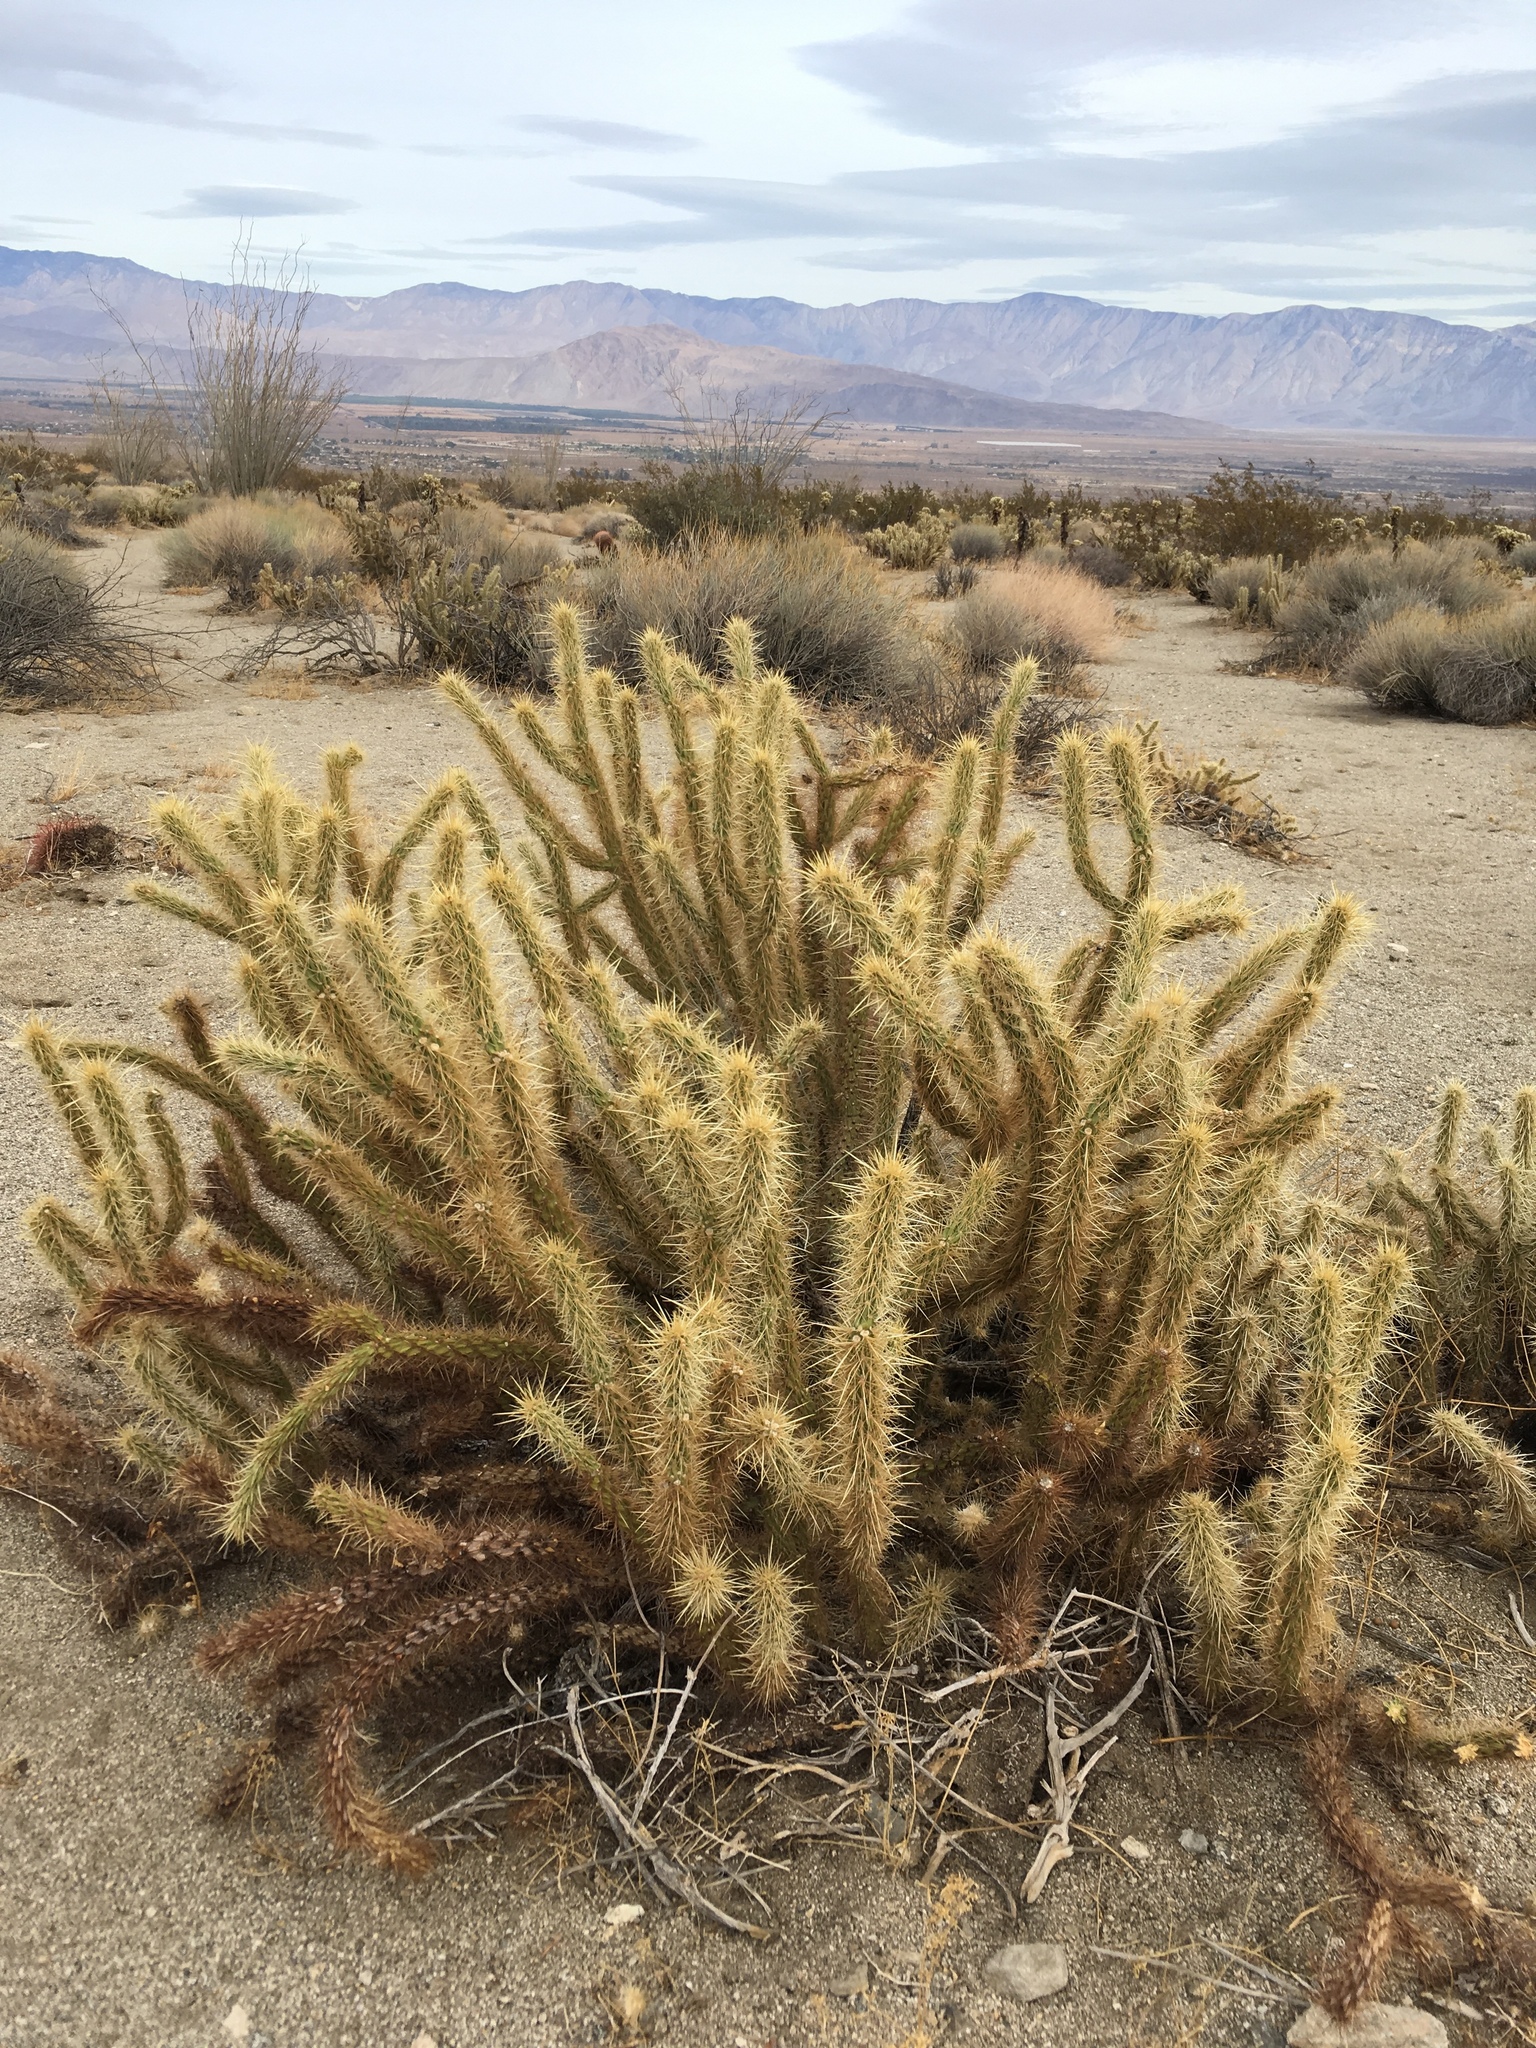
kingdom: Plantae
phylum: Tracheophyta
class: Magnoliopsida
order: Caryophyllales
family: Cactaceae
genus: Cylindropuntia
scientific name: Cylindropuntia ganderi
